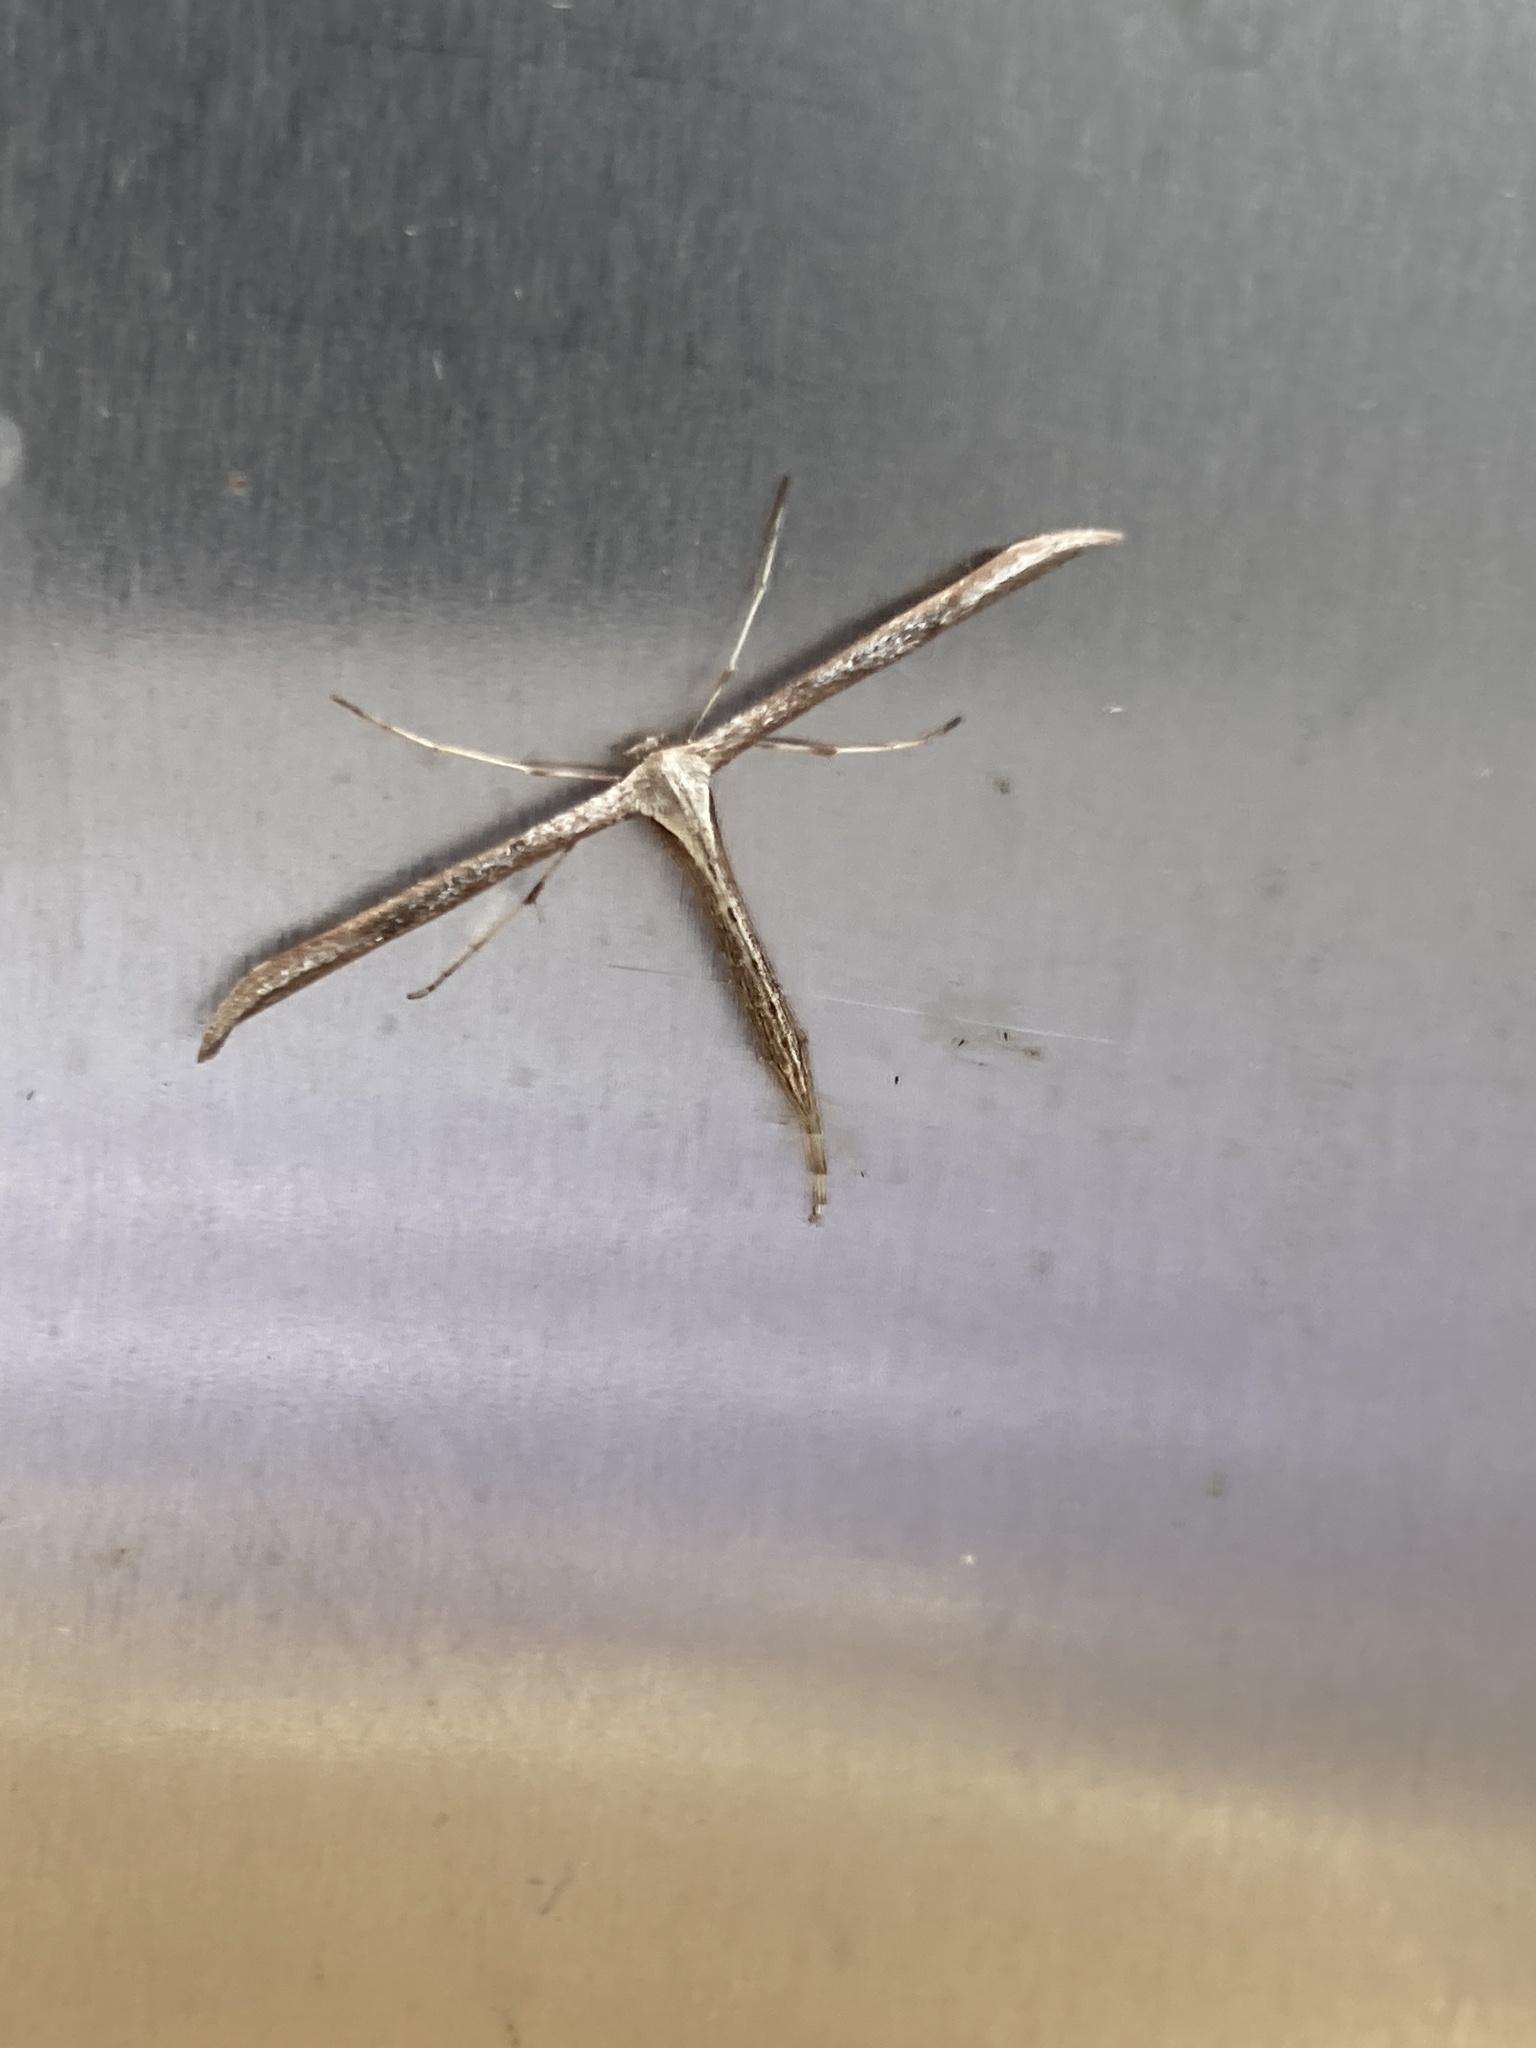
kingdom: Animalia
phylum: Arthropoda
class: Insecta
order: Lepidoptera
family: Pterophoridae
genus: Emmelina
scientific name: Emmelina monodactyla
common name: Common plume
